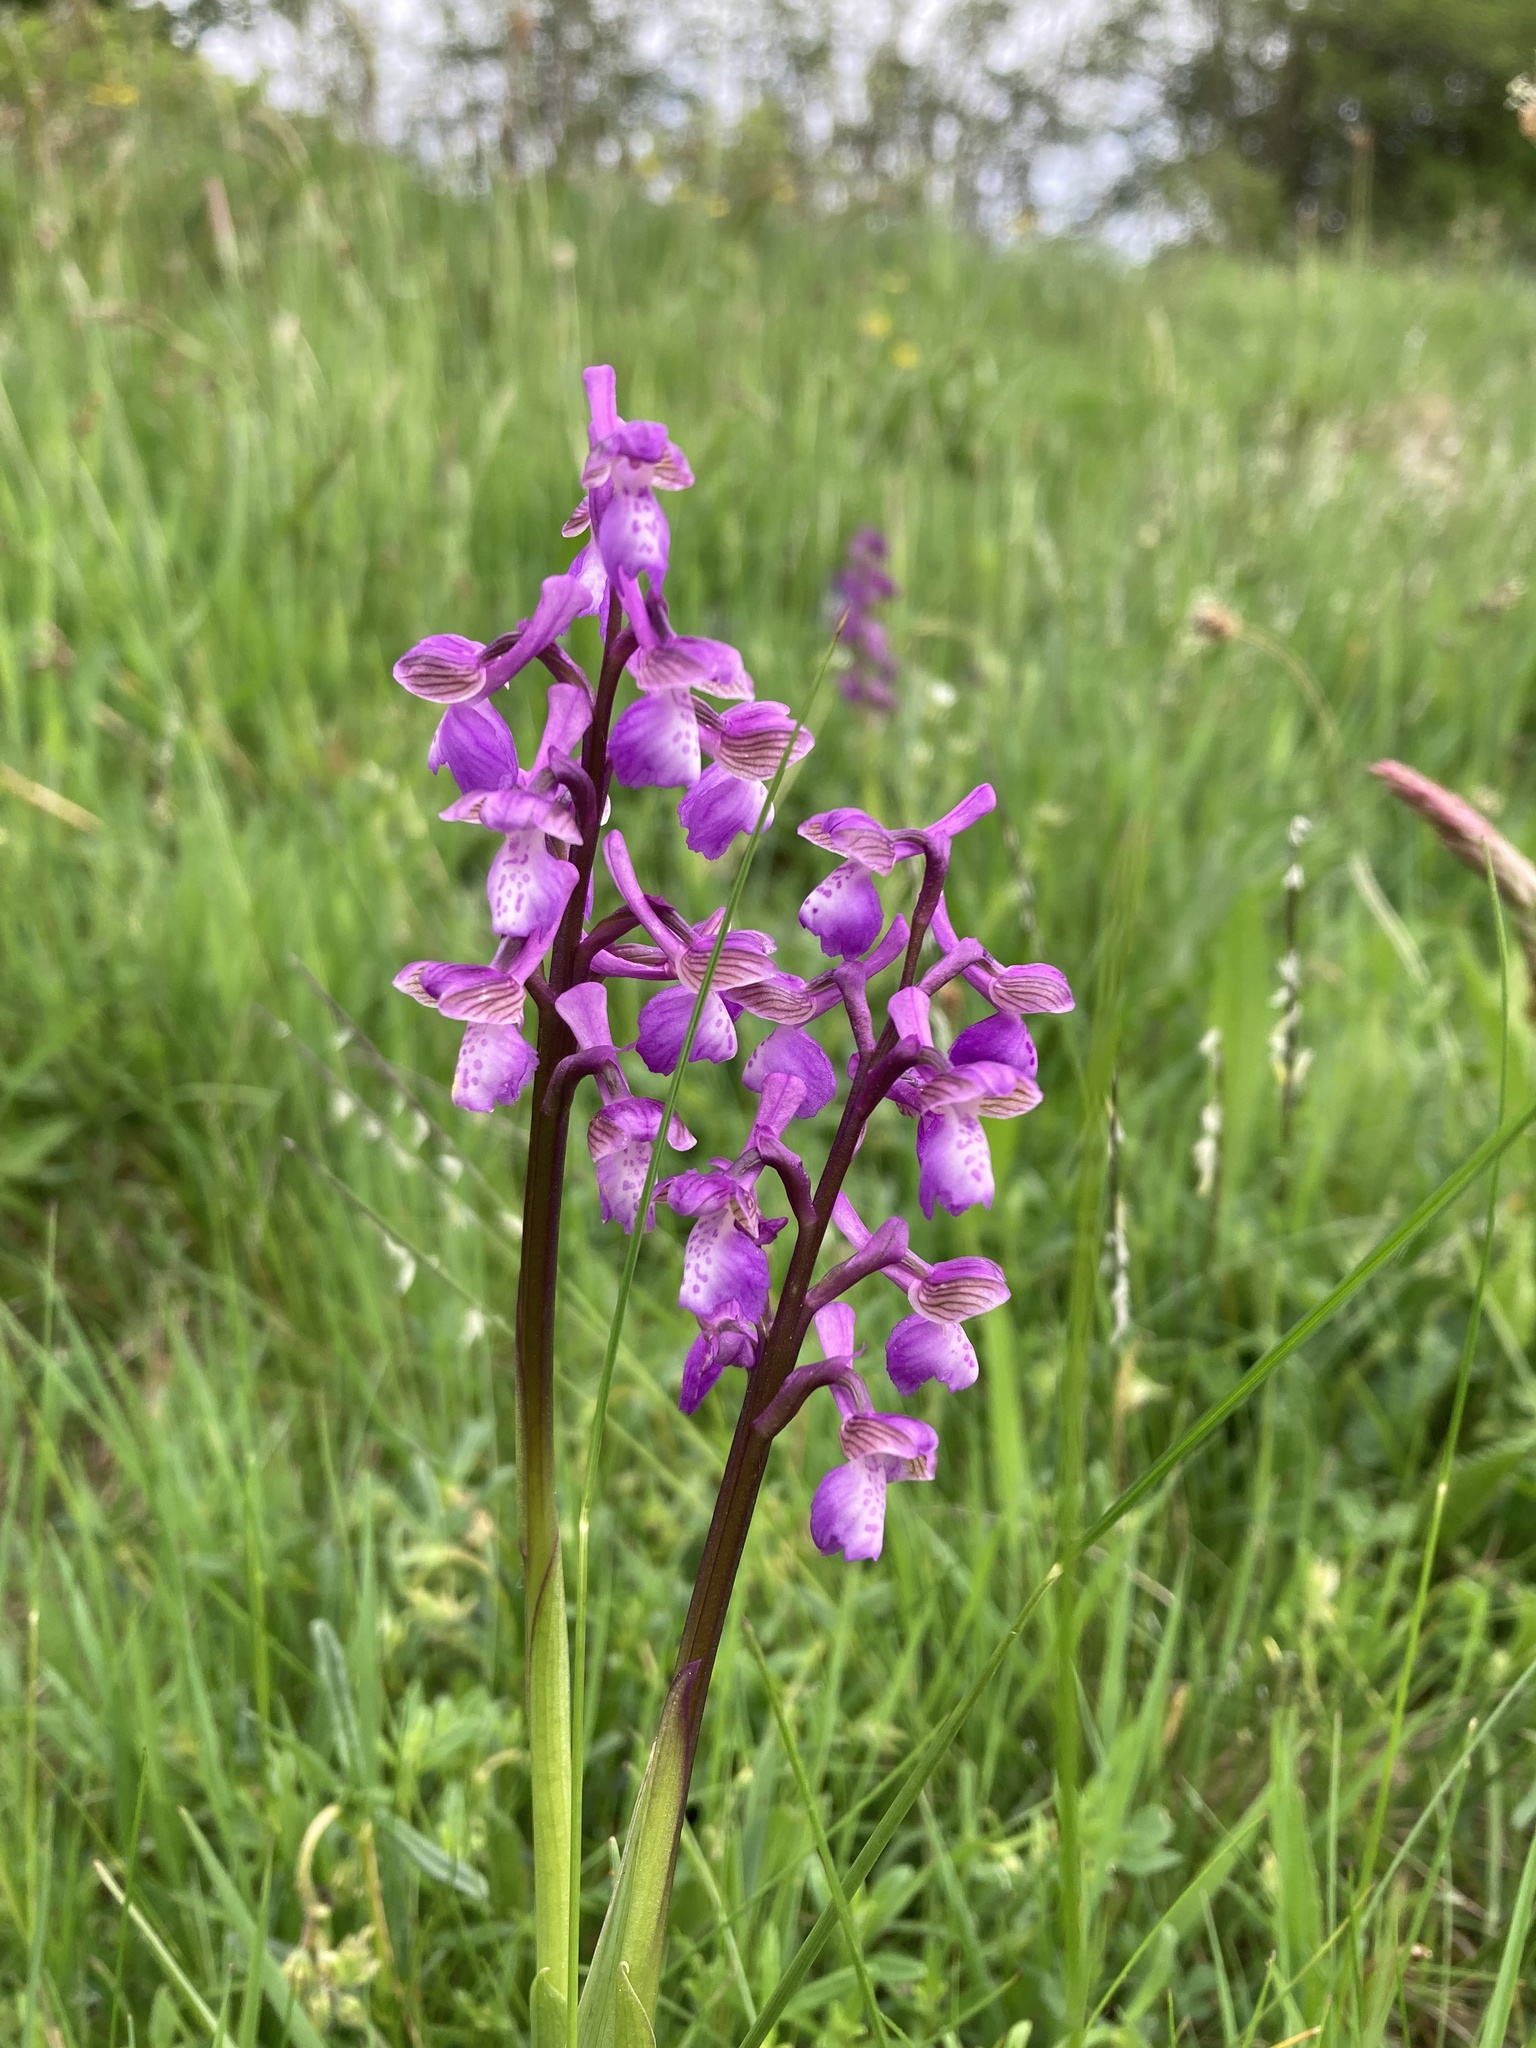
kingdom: Plantae
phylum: Tracheophyta
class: Liliopsida
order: Asparagales
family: Orchidaceae
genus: Anacamptis
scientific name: Anacamptis morio
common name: Green-winged orchid
